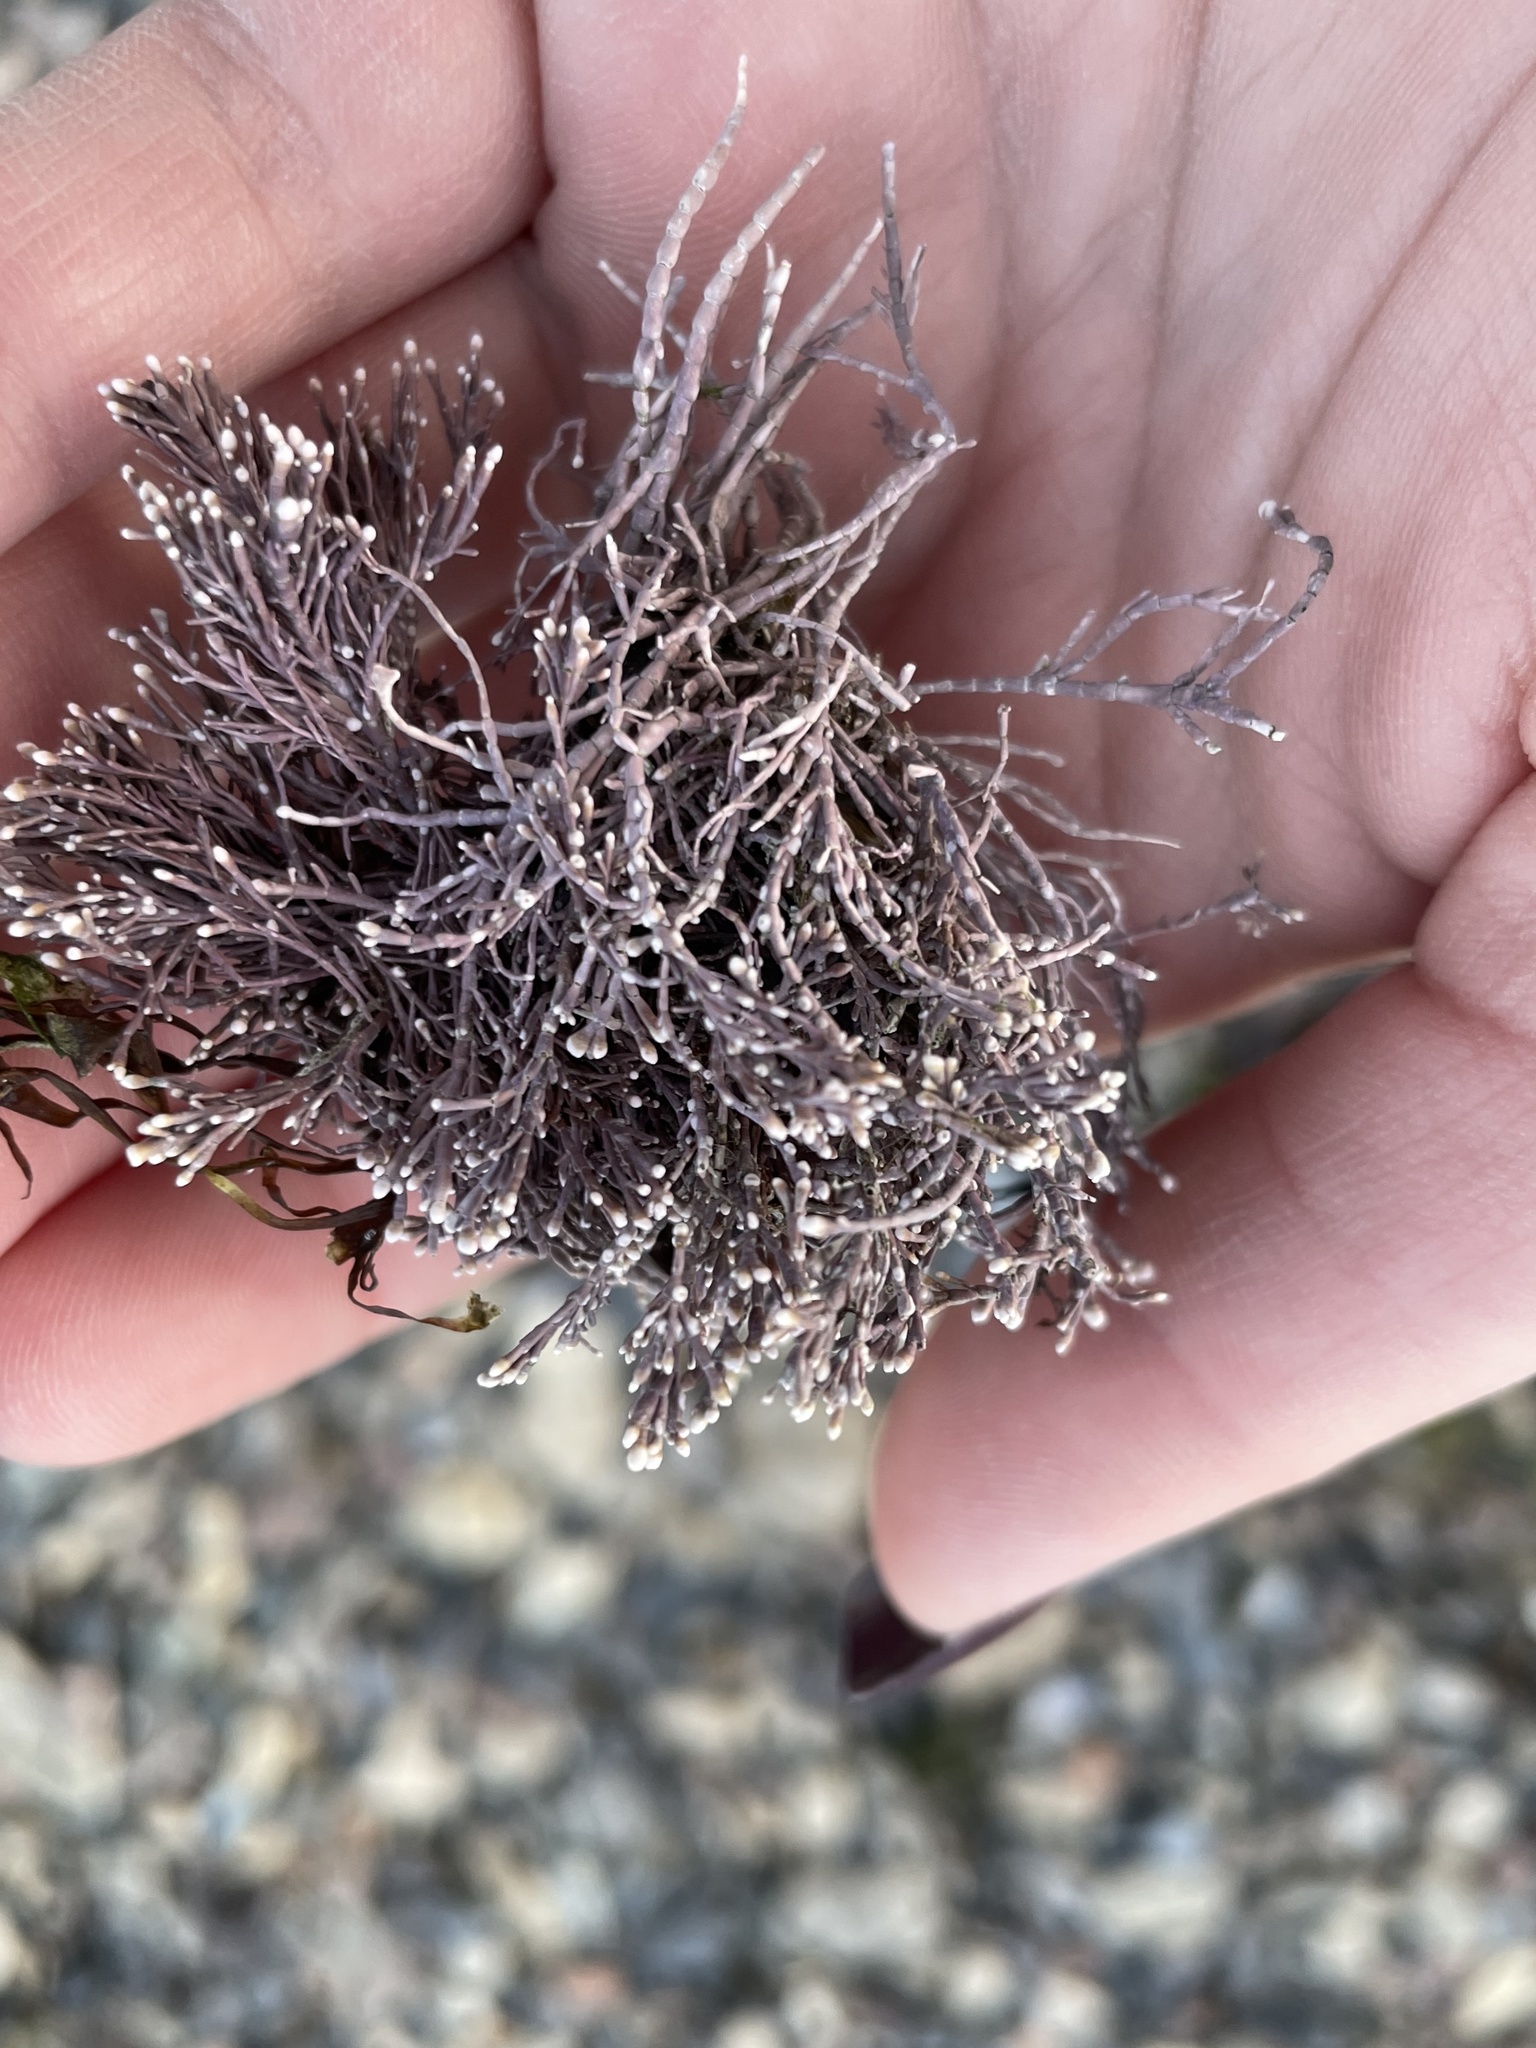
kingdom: Plantae
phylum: Rhodophyta
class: Florideophyceae
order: Corallinales
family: Corallinaceae
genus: Corallina
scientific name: Corallina officinalis
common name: Coral weed
